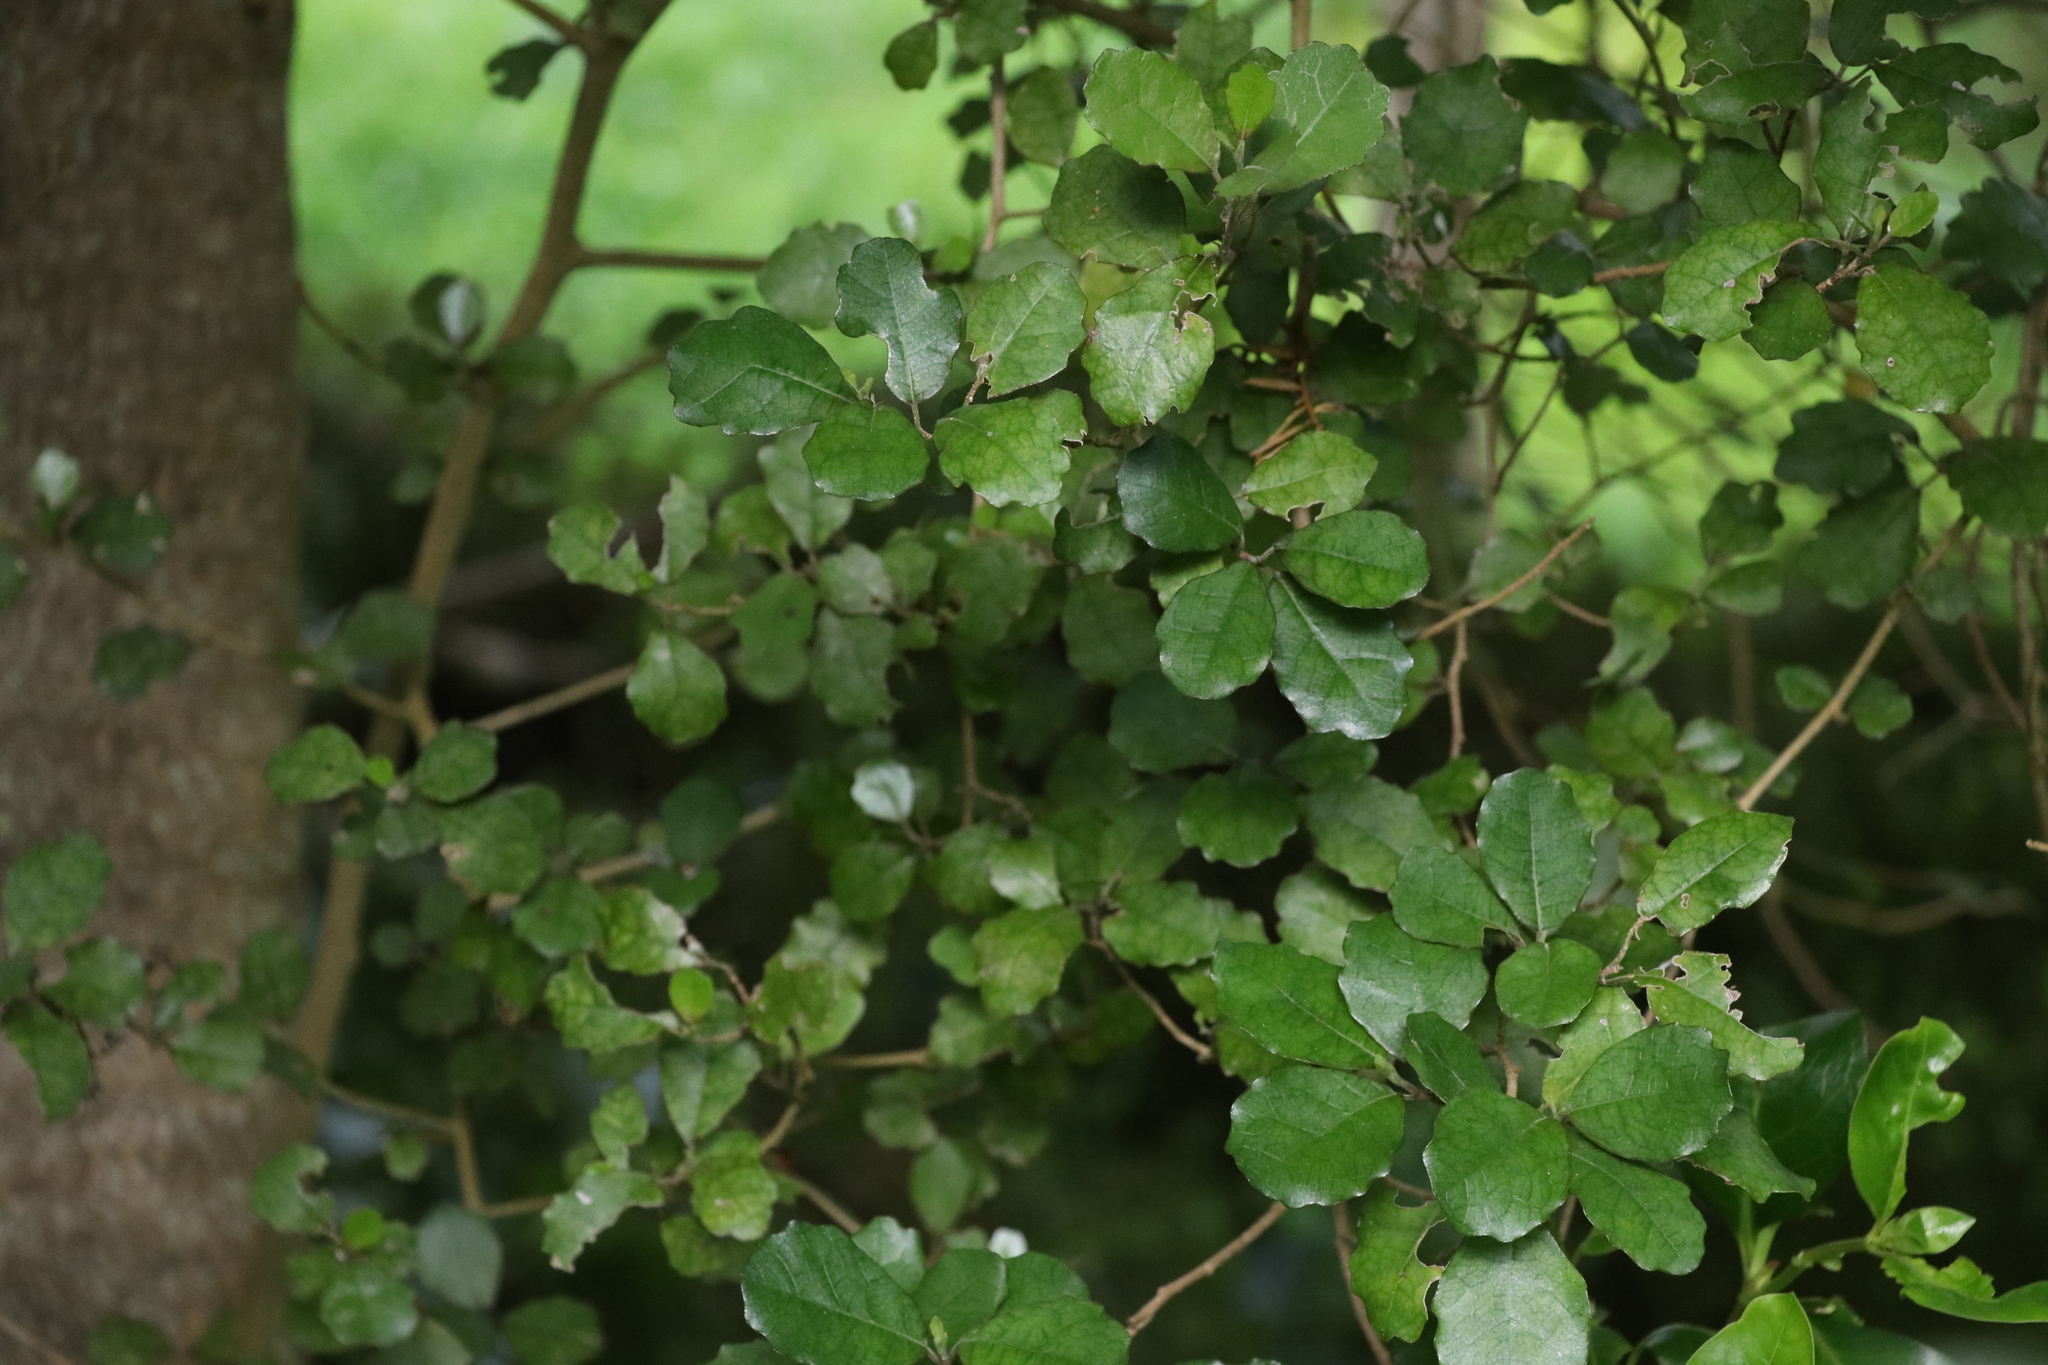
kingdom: Plantae
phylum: Tracheophyta
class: Magnoliopsida
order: Apiales
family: Pennantiaceae
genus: Pennantia
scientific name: Pennantia corymbosa
